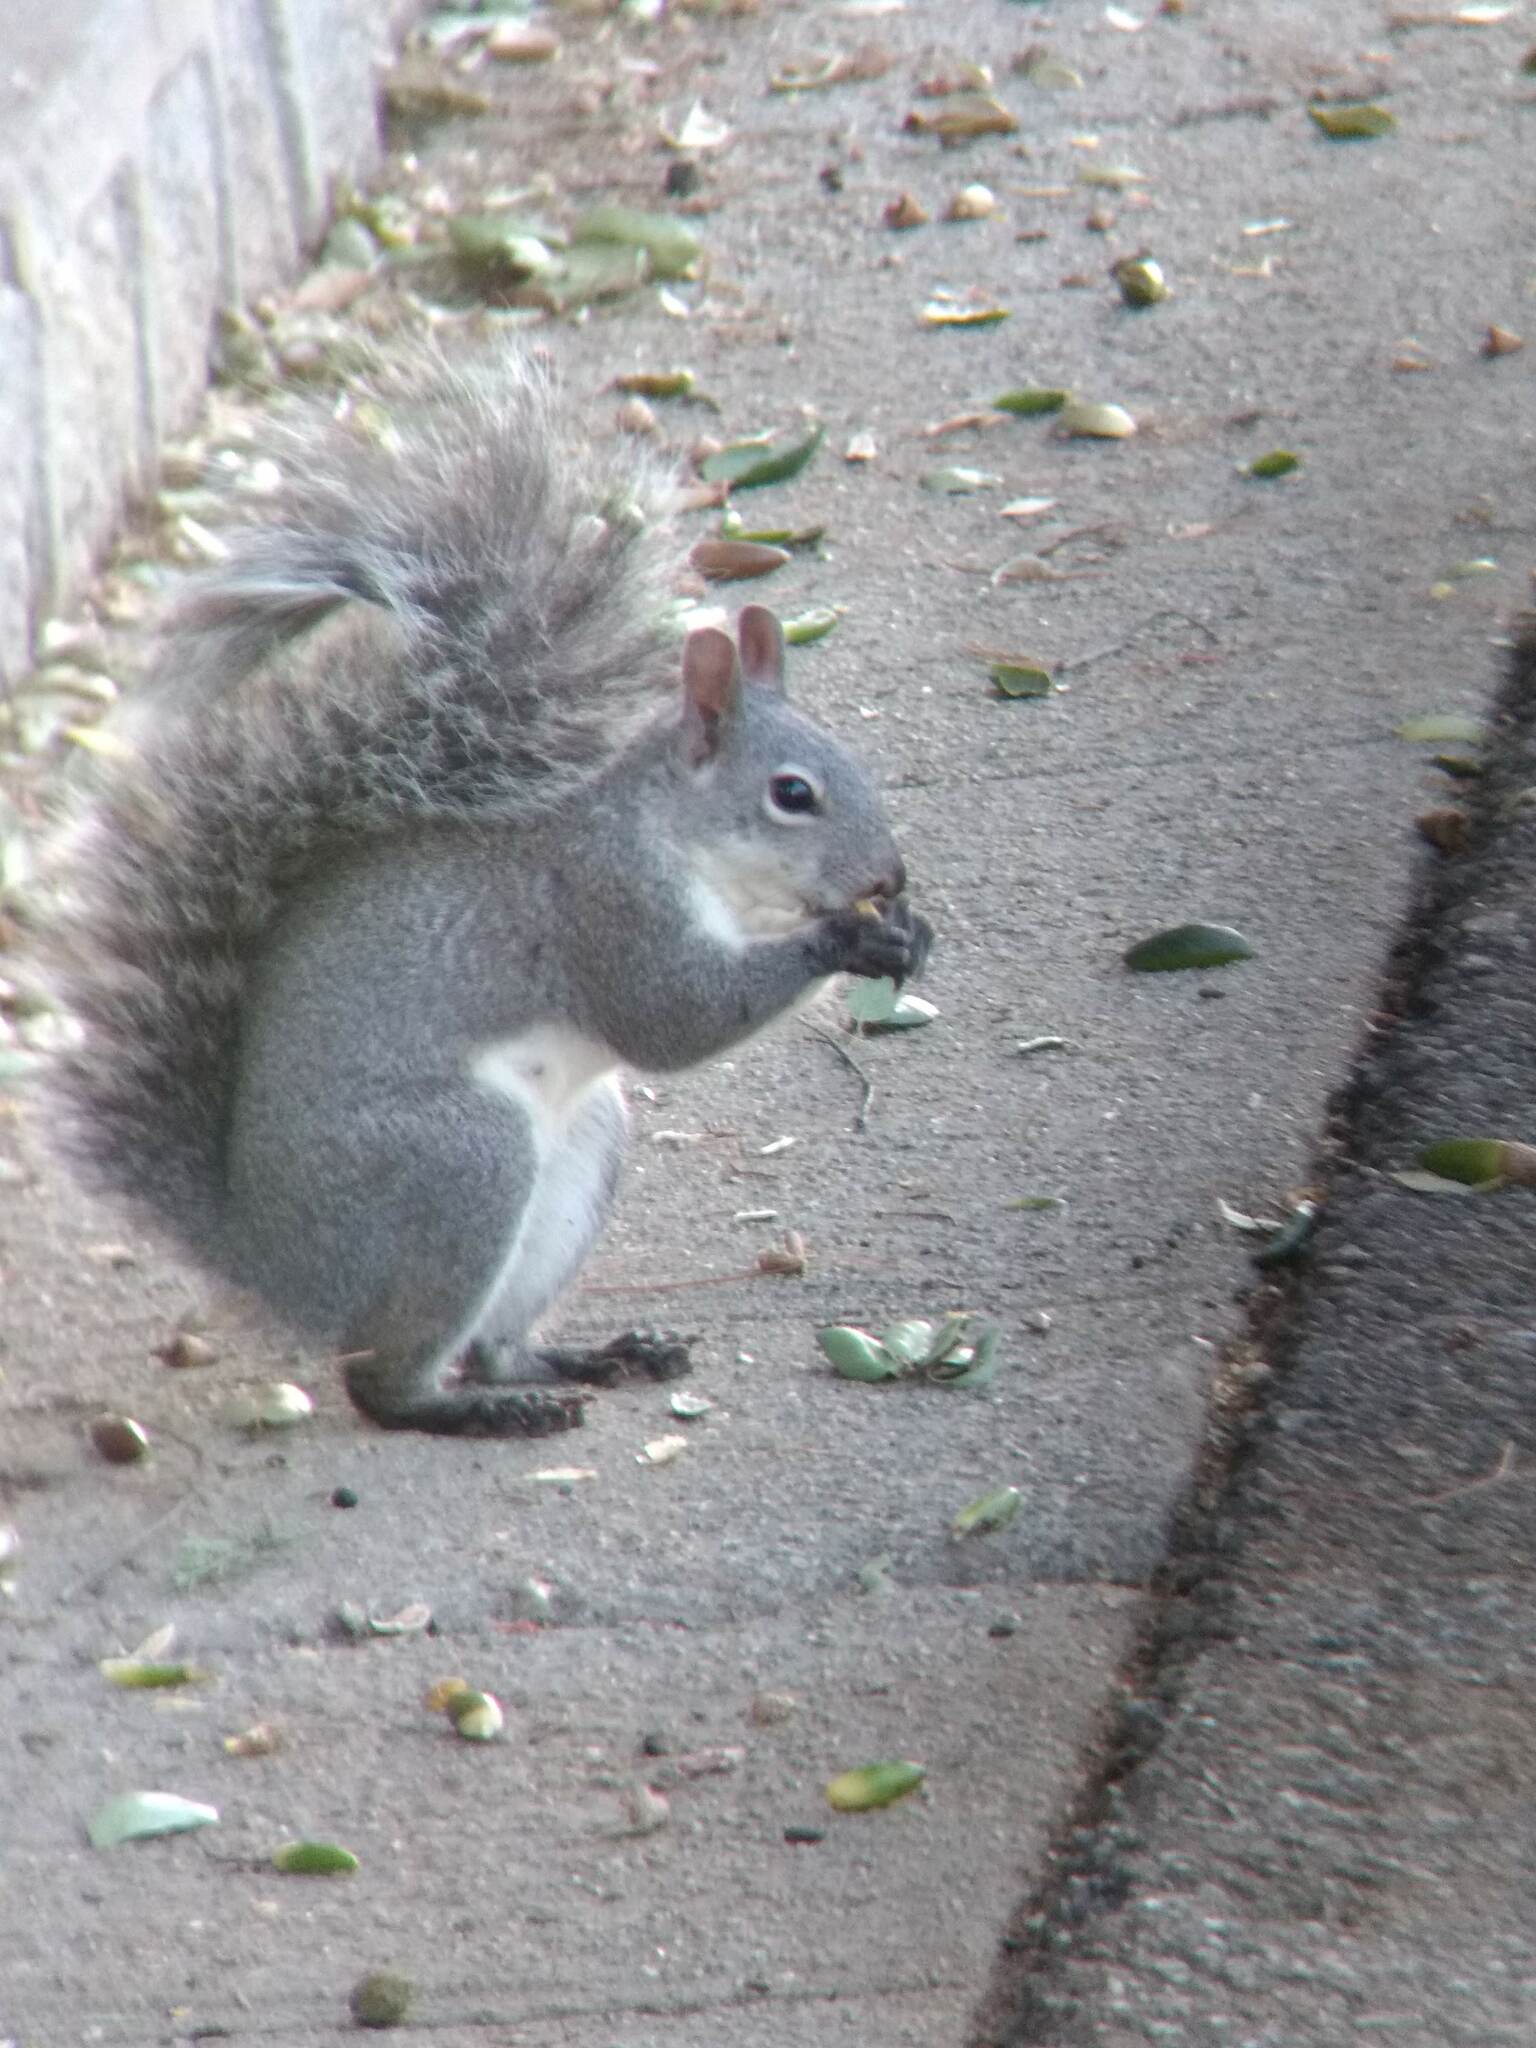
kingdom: Animalia
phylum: Chordata
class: Mammalia
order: Rodentia
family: Sciuridae
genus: Sciurus
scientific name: Sciurus griseus
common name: Western gray squirrel
